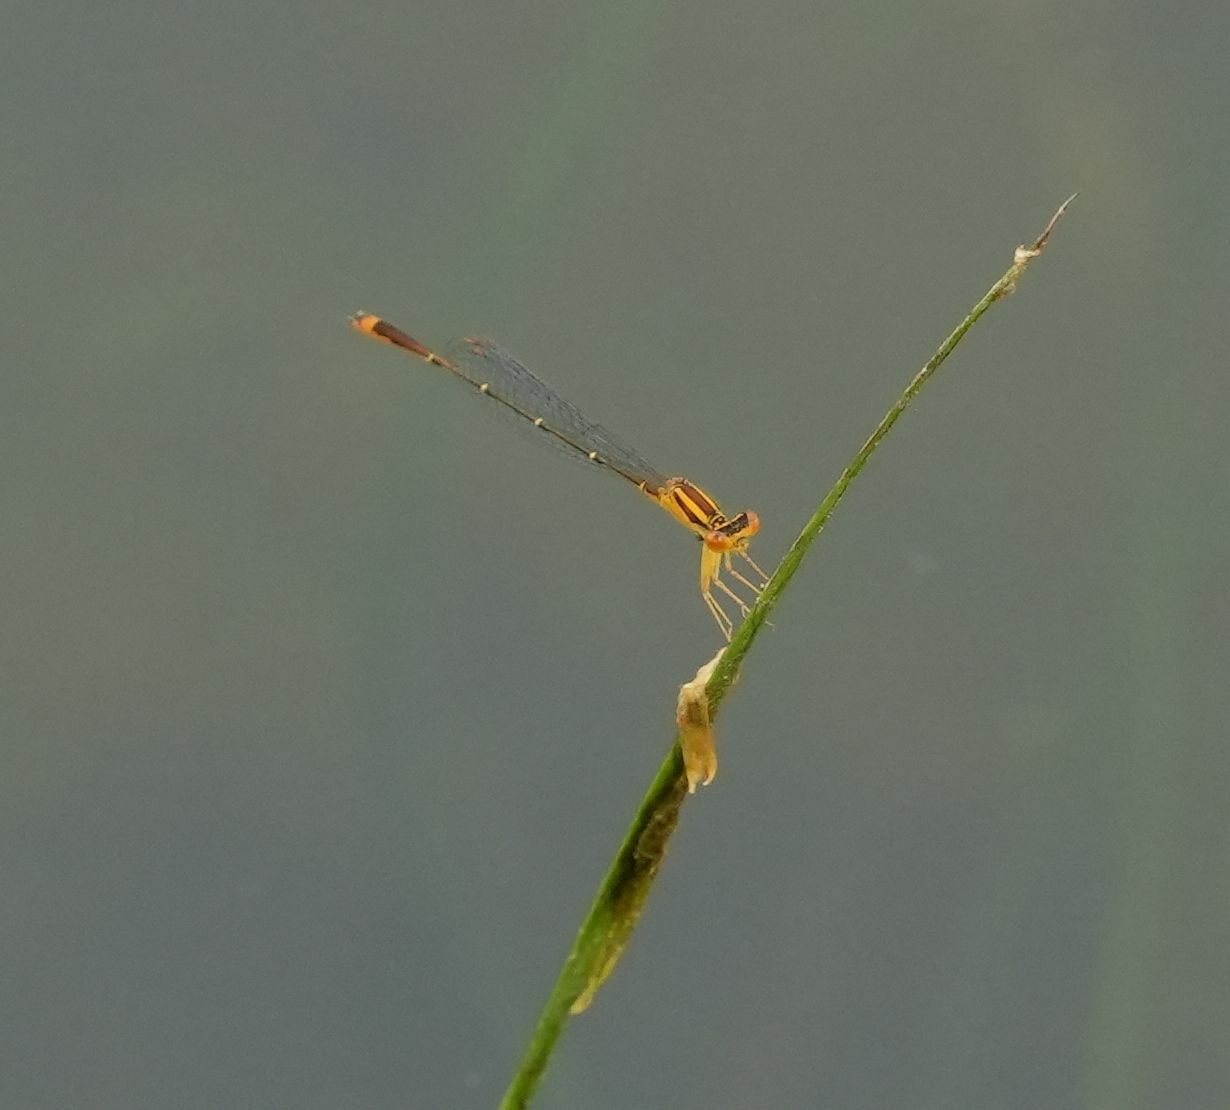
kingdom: Animalia
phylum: Arthropoda
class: Insecta
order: Odonata
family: Coenagrionidae
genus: Enallagma
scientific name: Enallagma signatum
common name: Orange bluet
